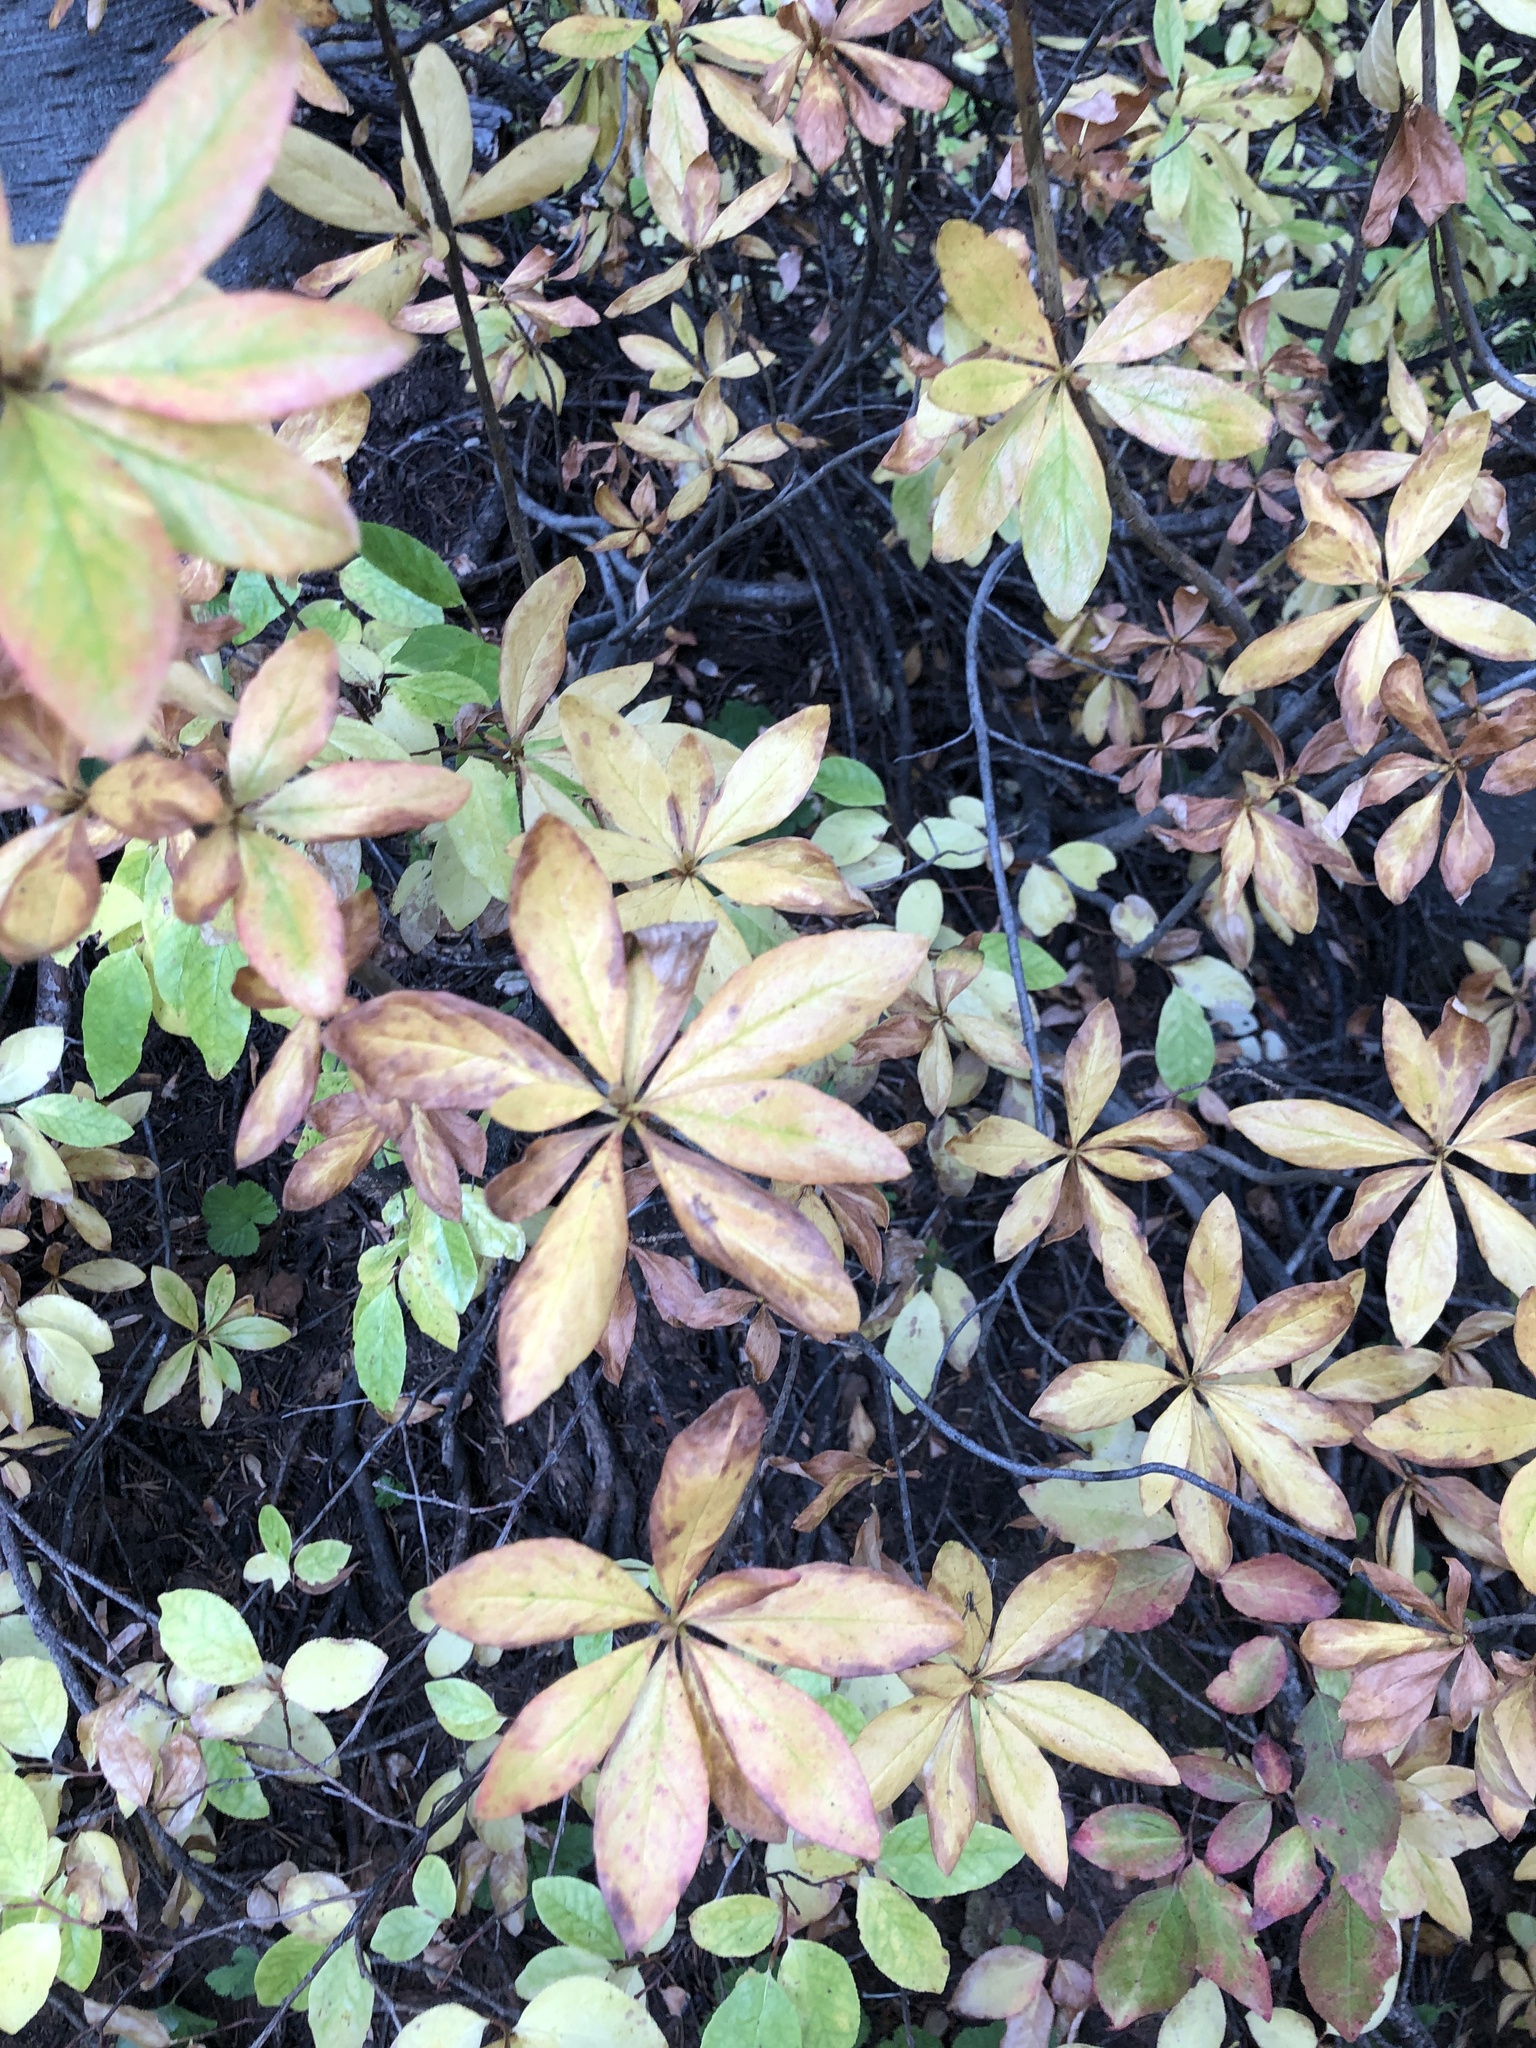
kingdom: Plantae
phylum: Tracheophyta
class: Magnoliopsida
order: Ericales
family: Ericaceae
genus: Rhododendron
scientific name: Rhododendron albiflorum
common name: White rhododendron
